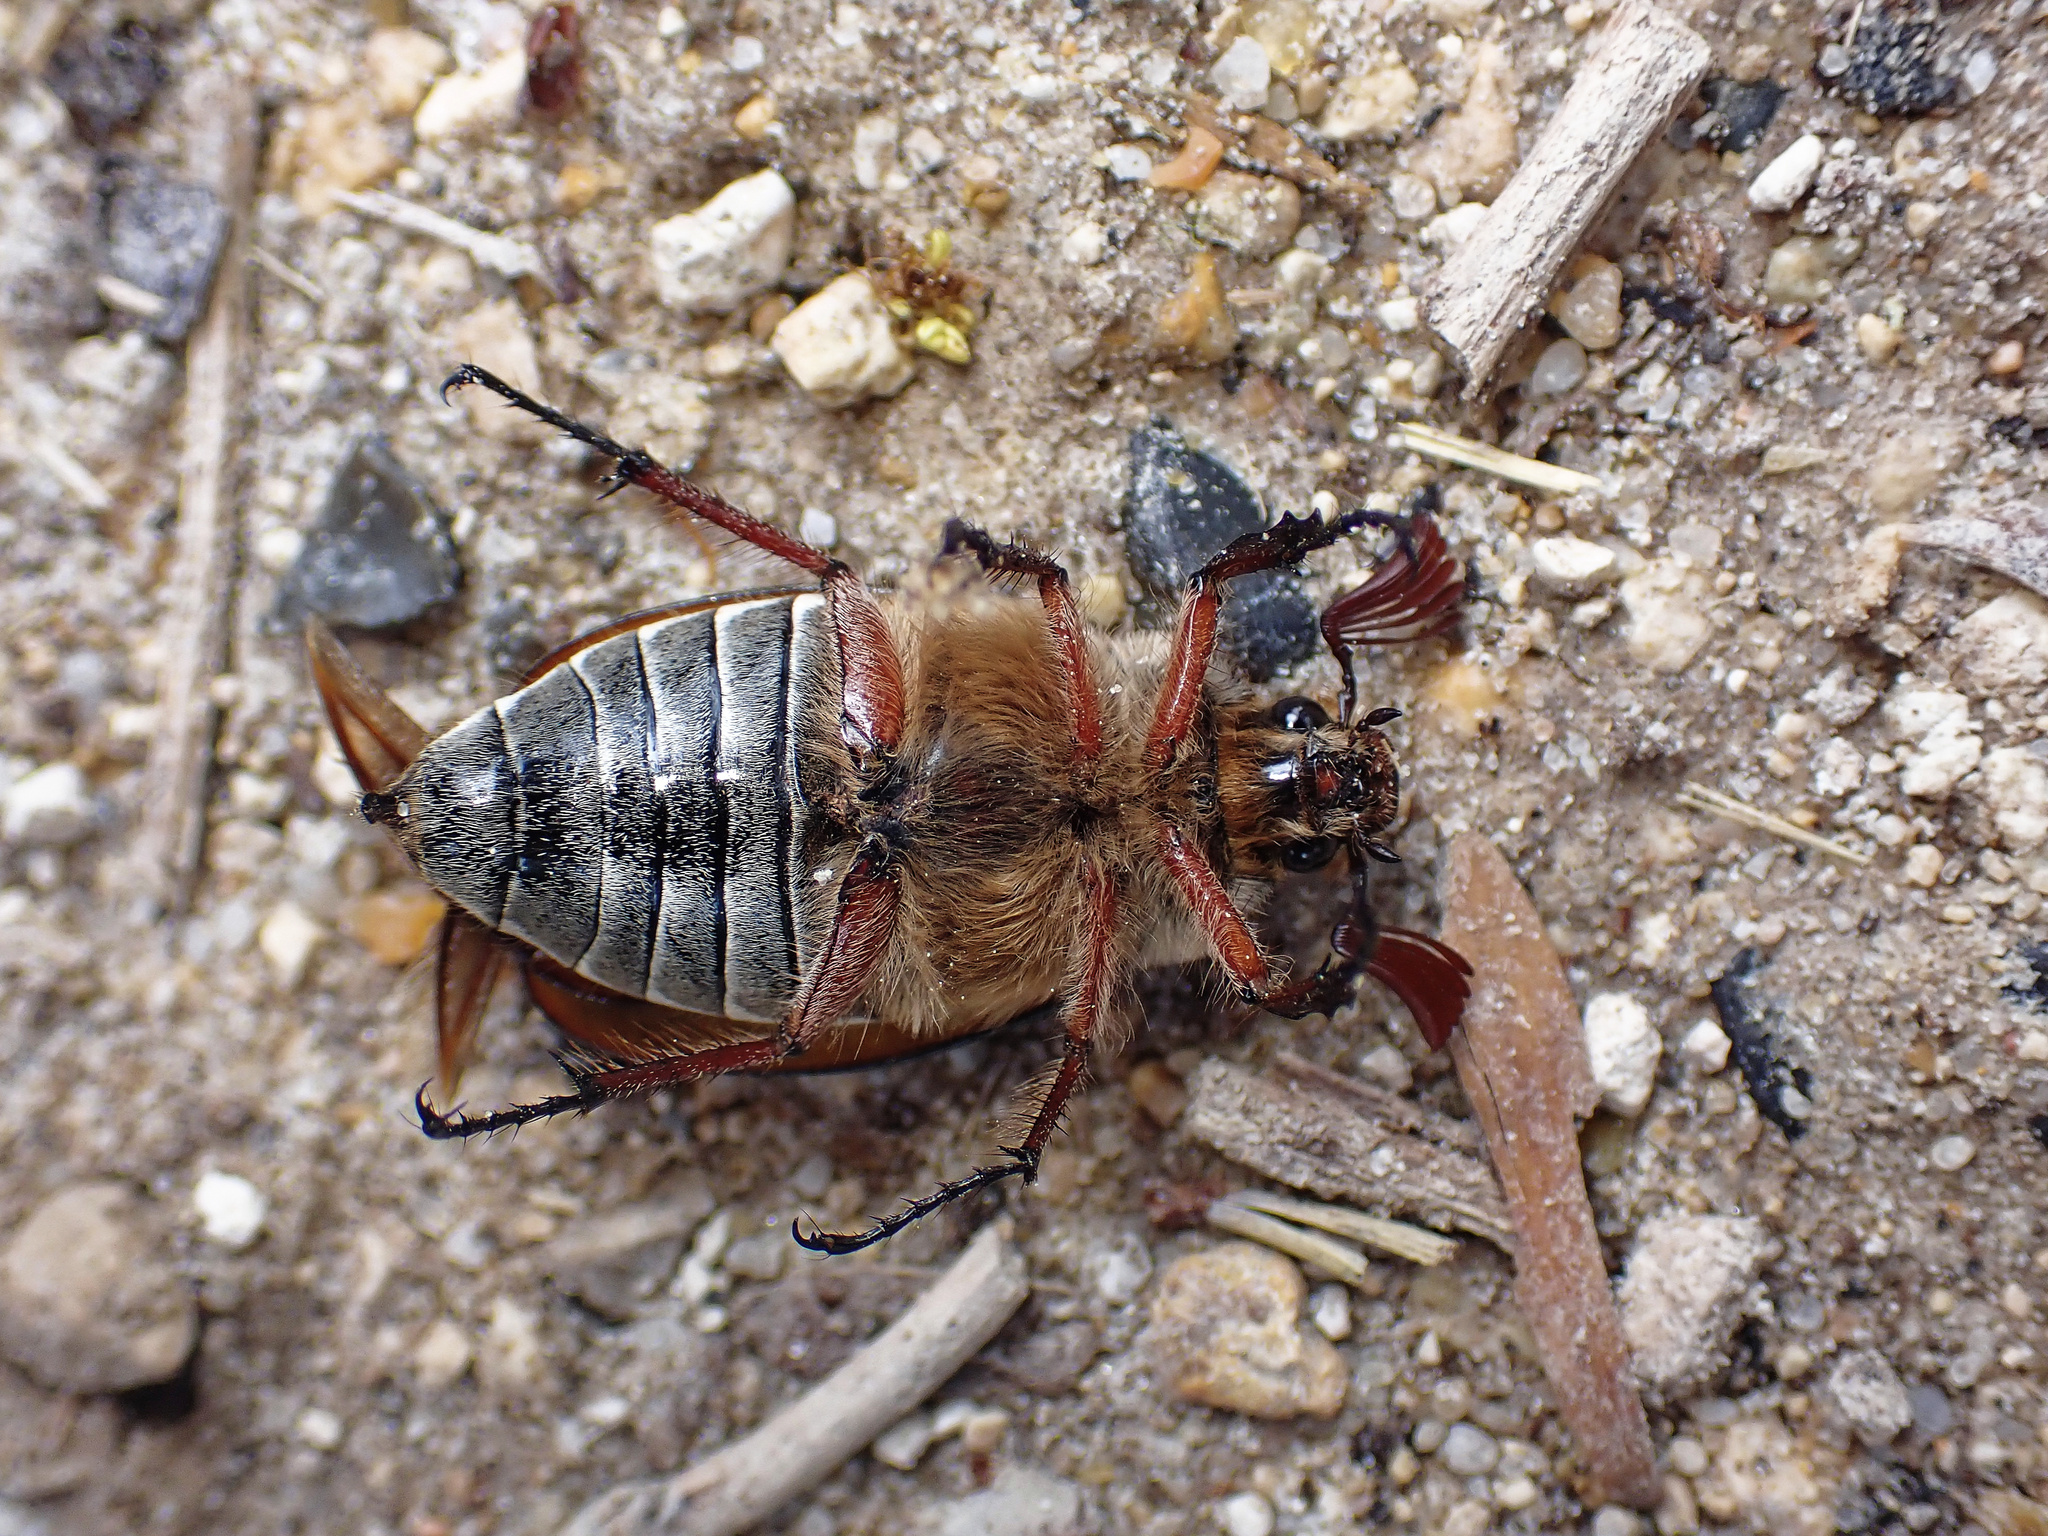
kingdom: Animalia
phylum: Arthropoda
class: Insecta
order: Coleoptera
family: Scarabaeidae
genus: Melolontha
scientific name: Melolontha hippocastani
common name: Chestnut cockchafer
